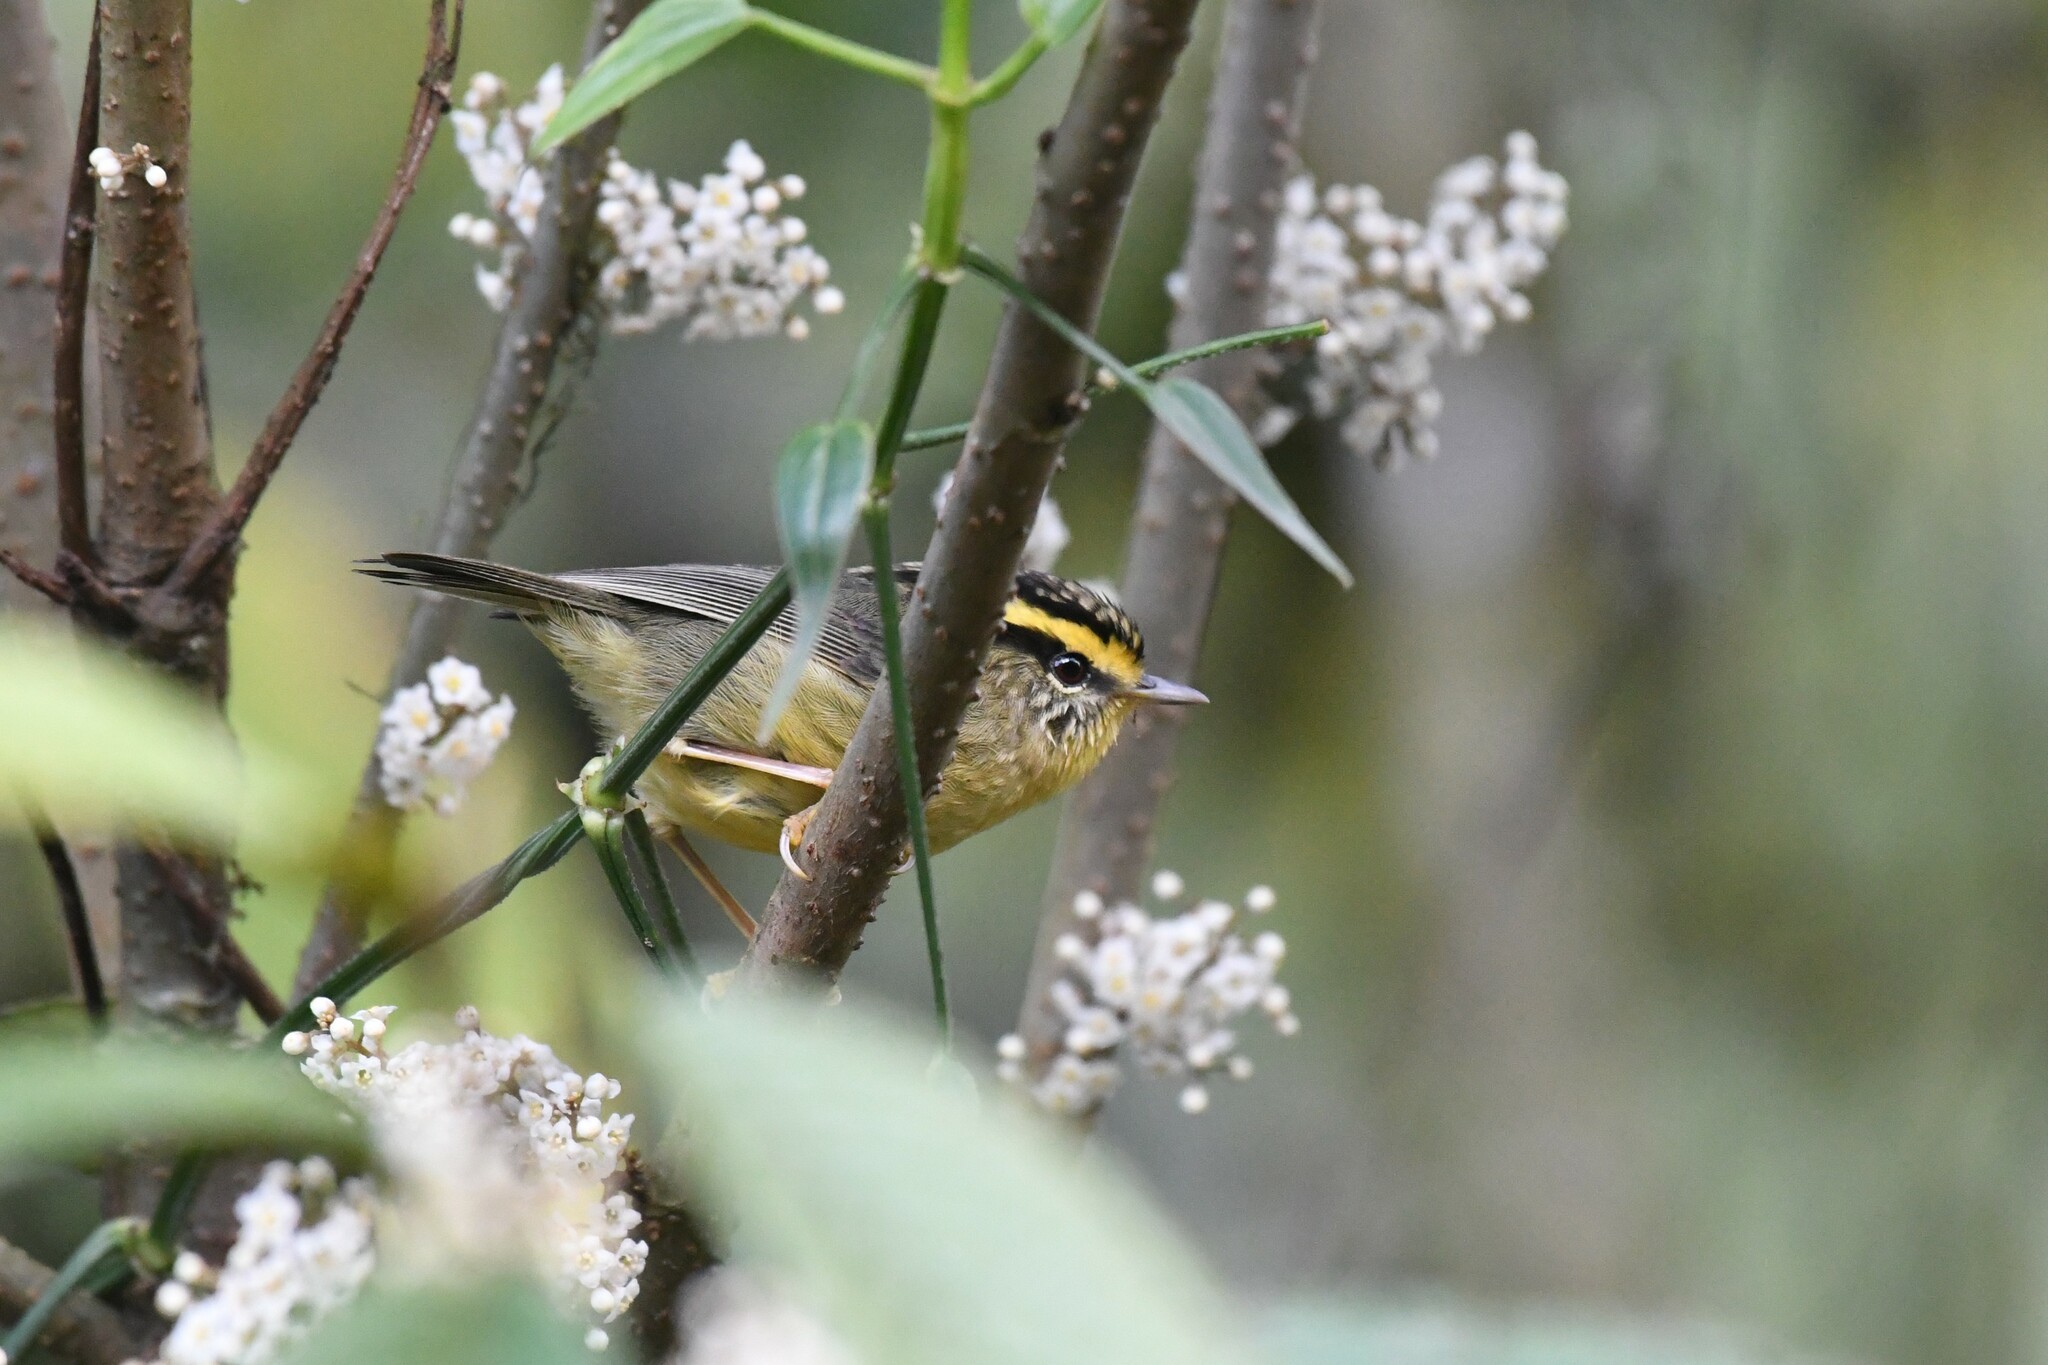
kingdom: Animalia
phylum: Chordata
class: Aves
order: Passeriformes
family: Pellorneidae
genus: Alcippe
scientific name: Alcippe cinerea
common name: Yellow-throated fulvetta
